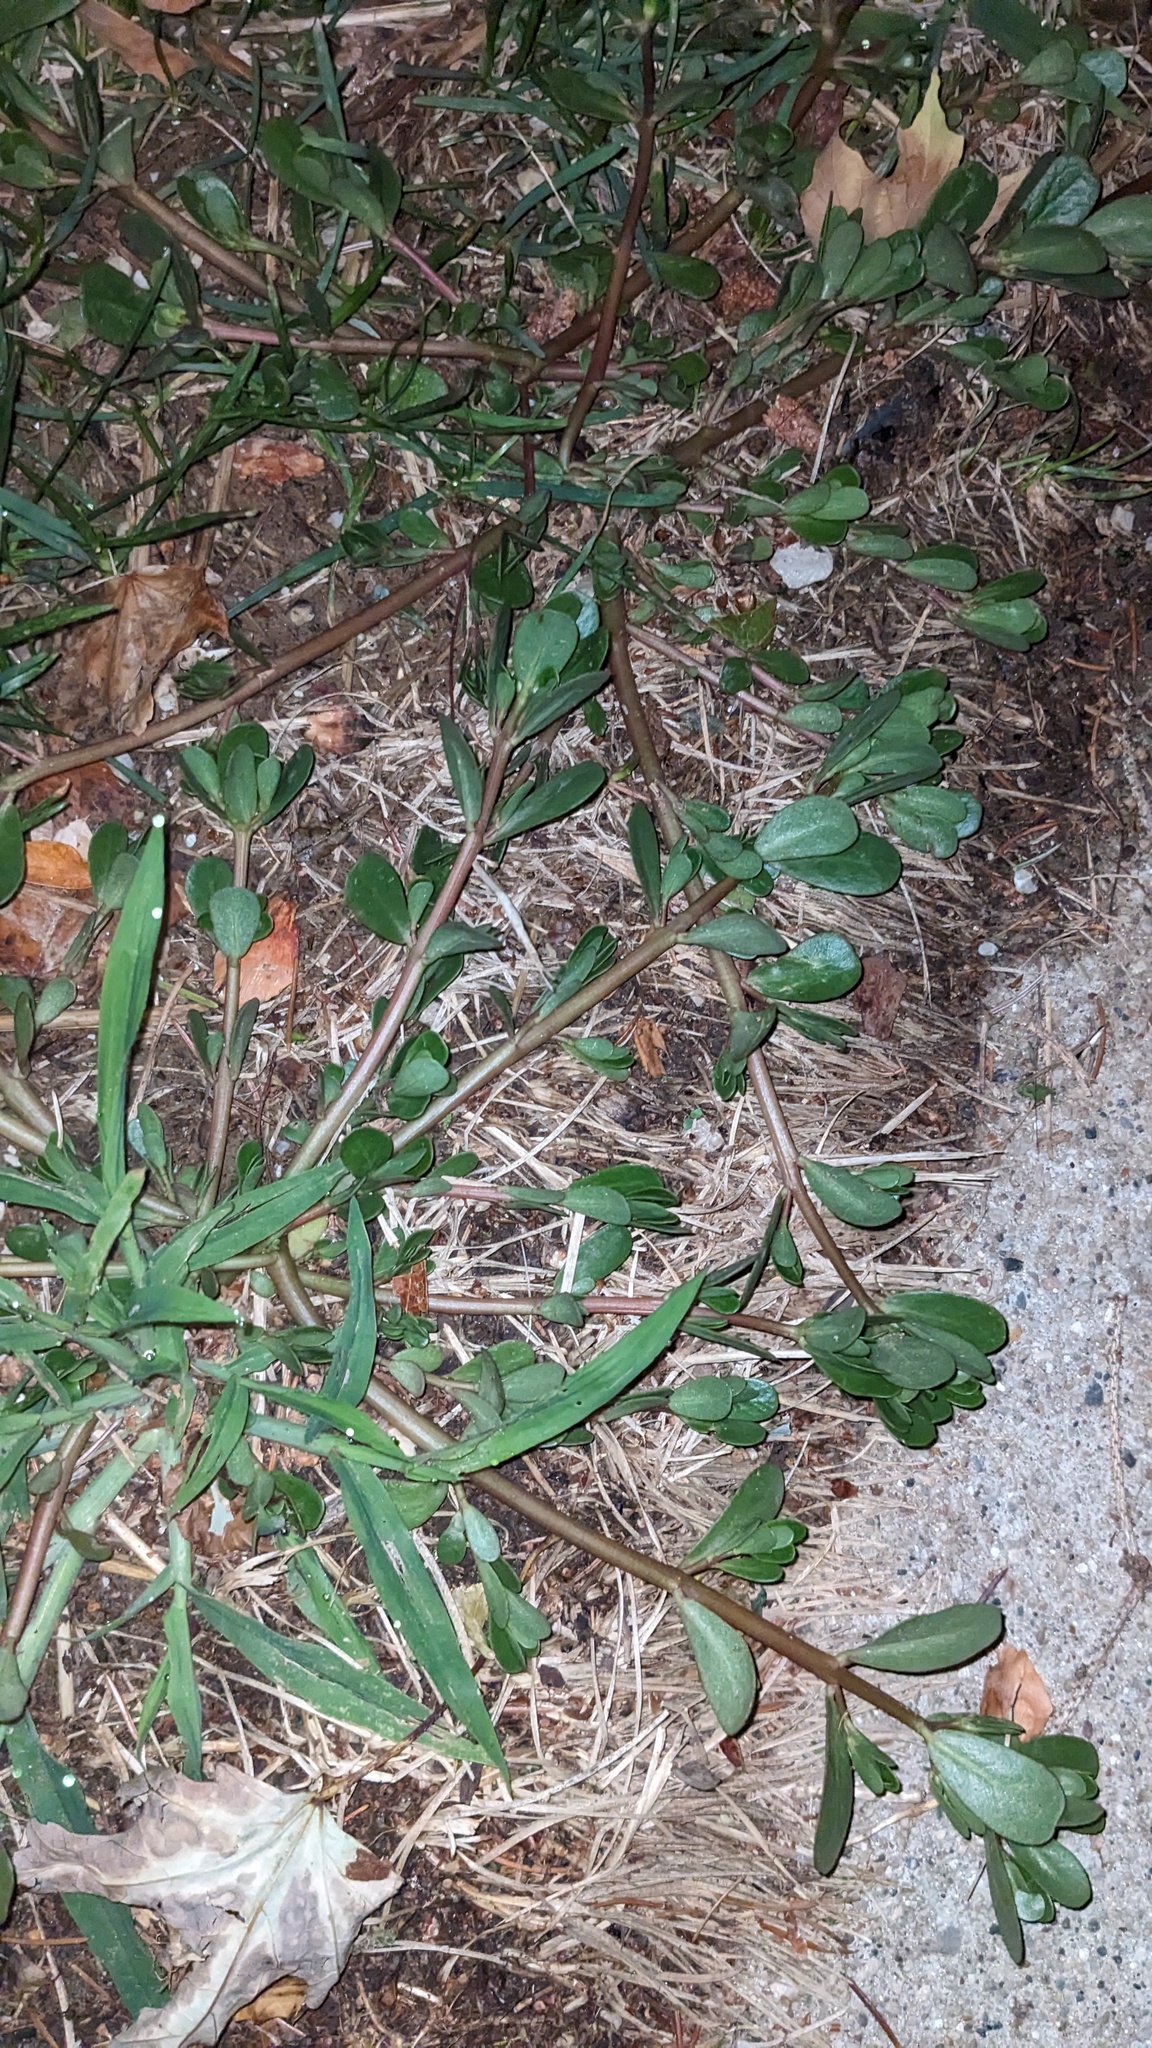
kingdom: Plantae
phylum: Tracheophyta
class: Magnoliopsida
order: Caryophyllales
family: Portulacaceae
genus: Portulaca
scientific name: Portulaca oleracea
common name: Common purslane
